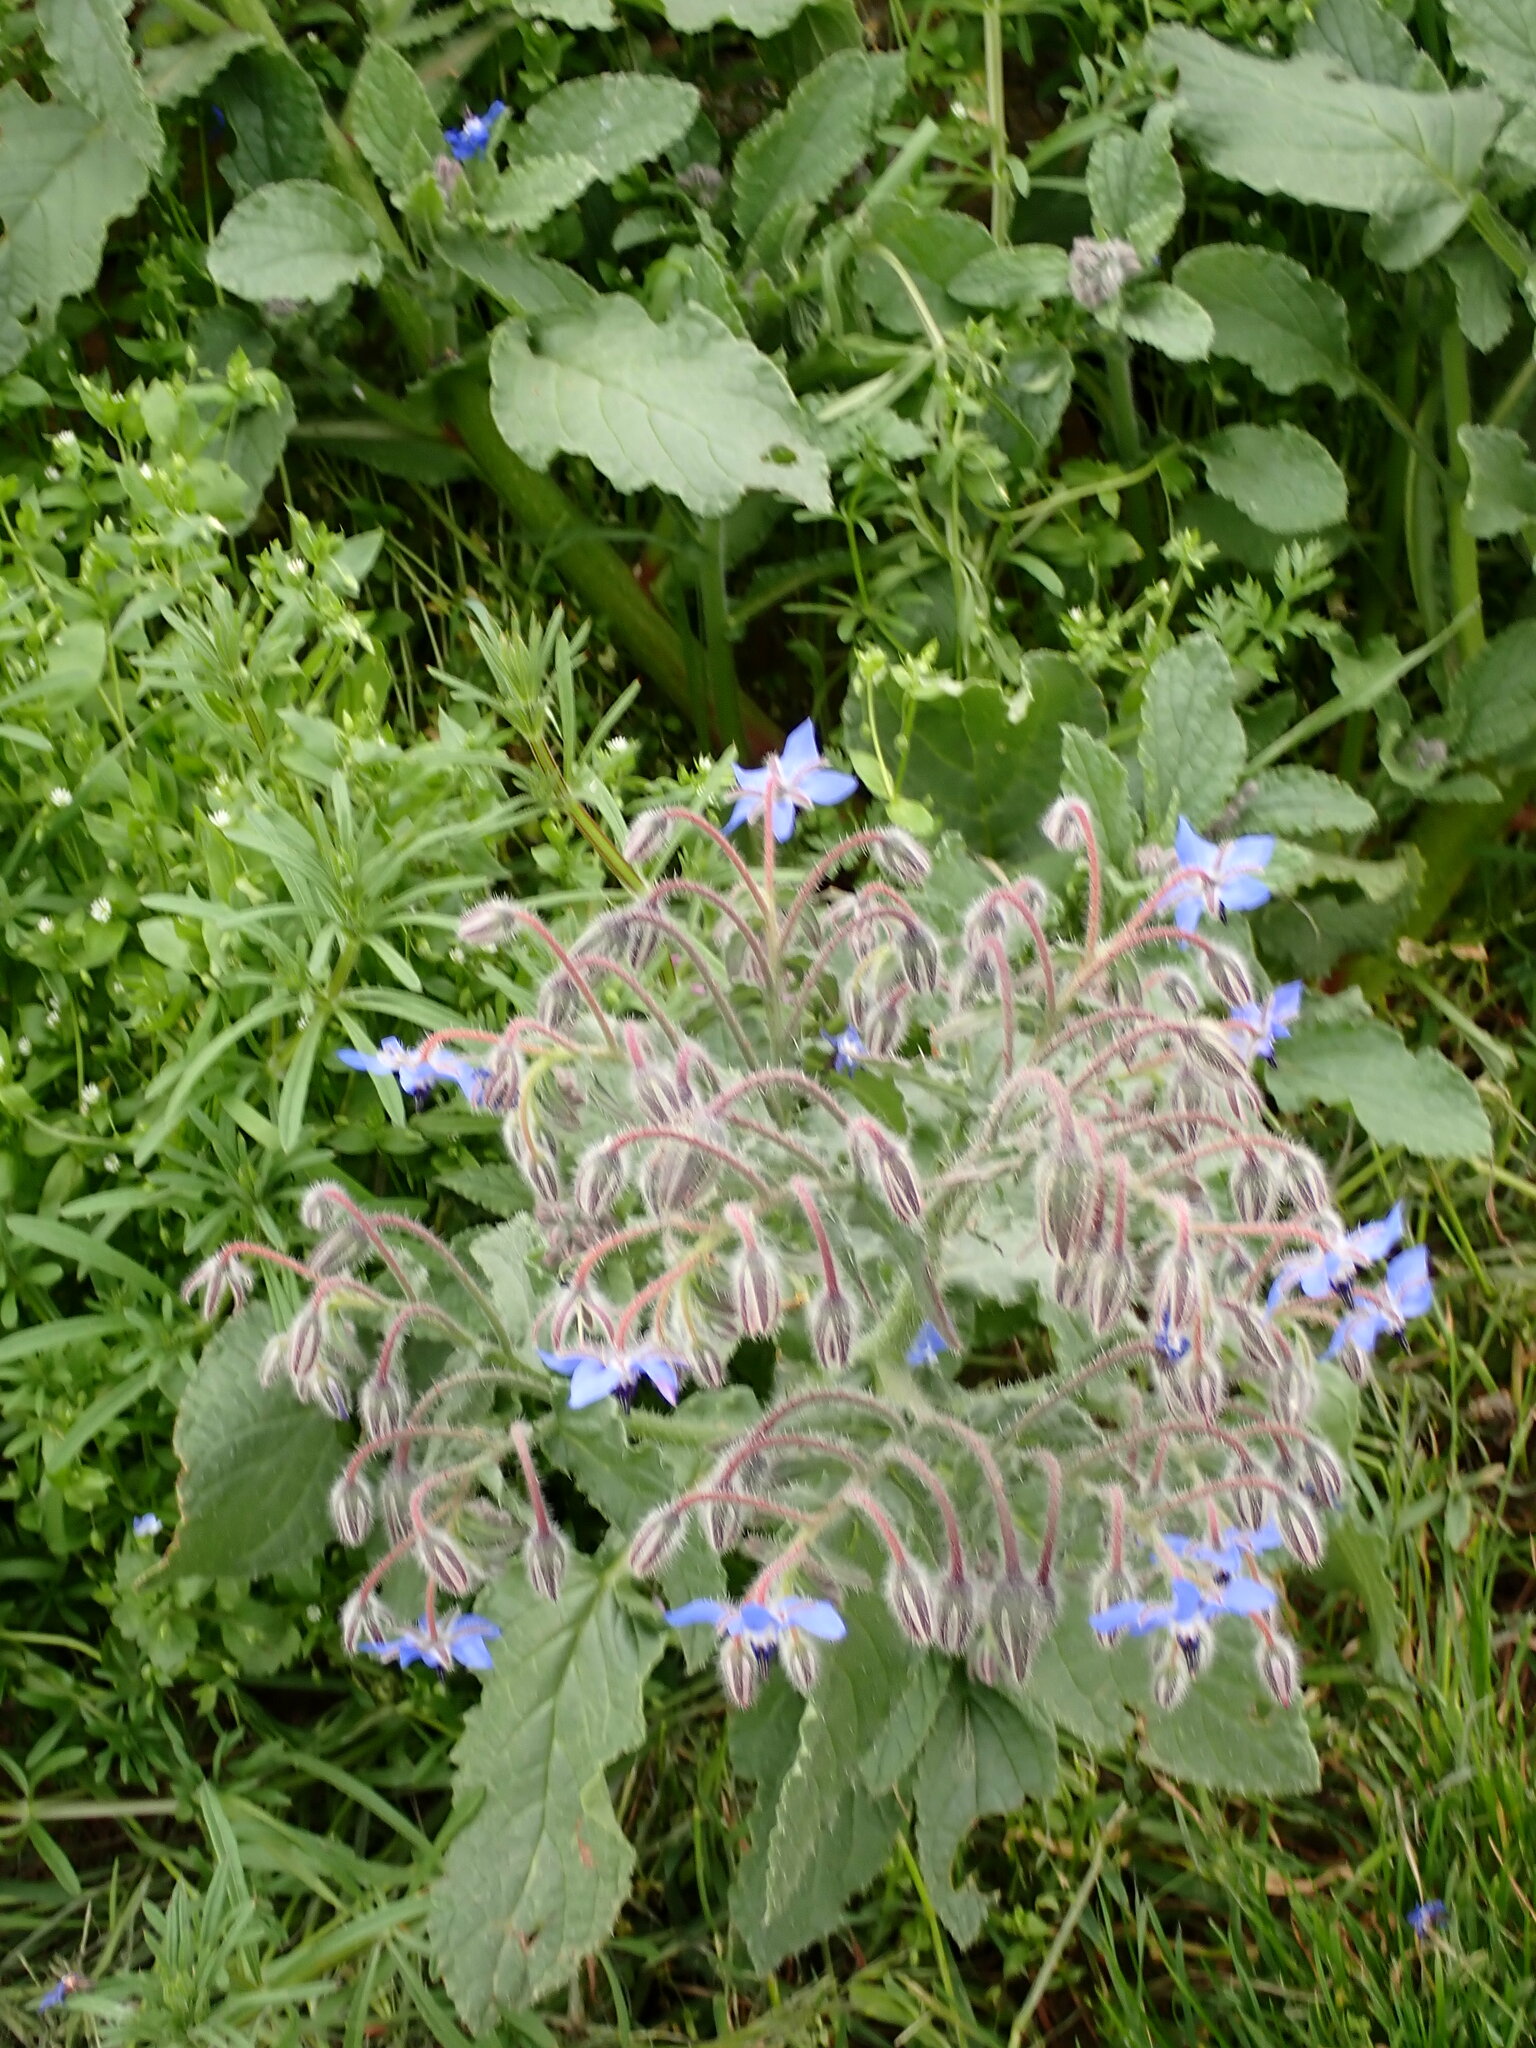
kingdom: Plantae
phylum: Tracheophyta
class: Magnoliopsida
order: Boraginales
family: Boraginaceae
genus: Borago
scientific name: Borago officinalis
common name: Borage
